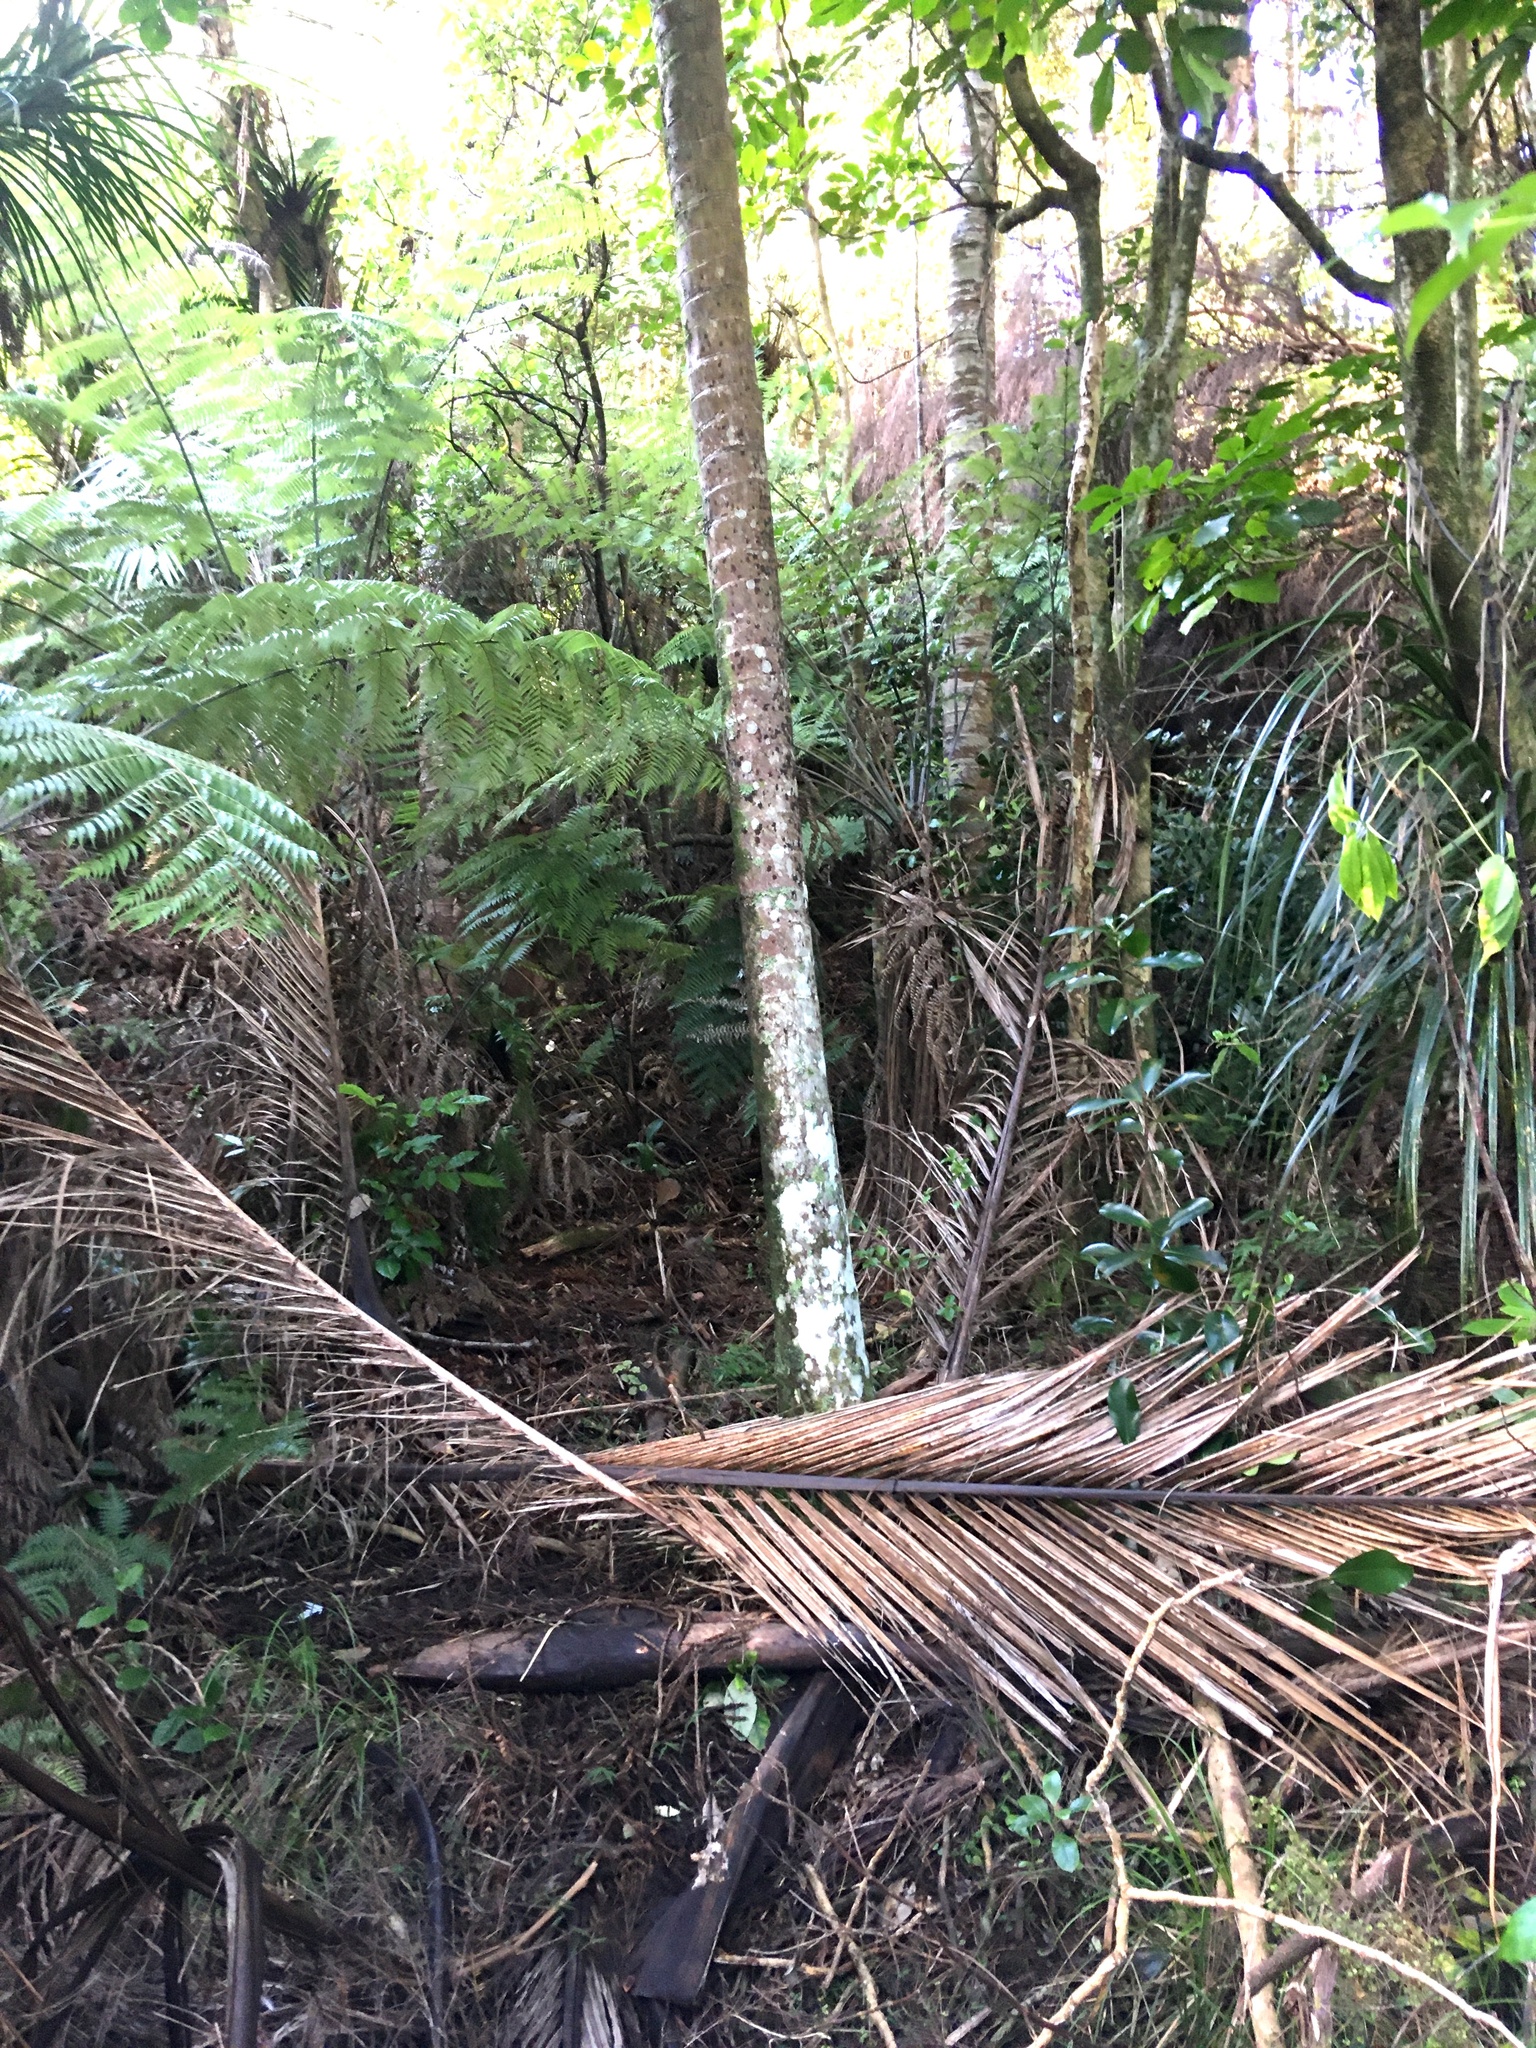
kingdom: Plantae
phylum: Tracheophyta
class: Liliopsida
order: Arecales
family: Arecaceae
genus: Rhopalostylis
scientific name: Rhopalostylis sapida
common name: Feather-duster palm
